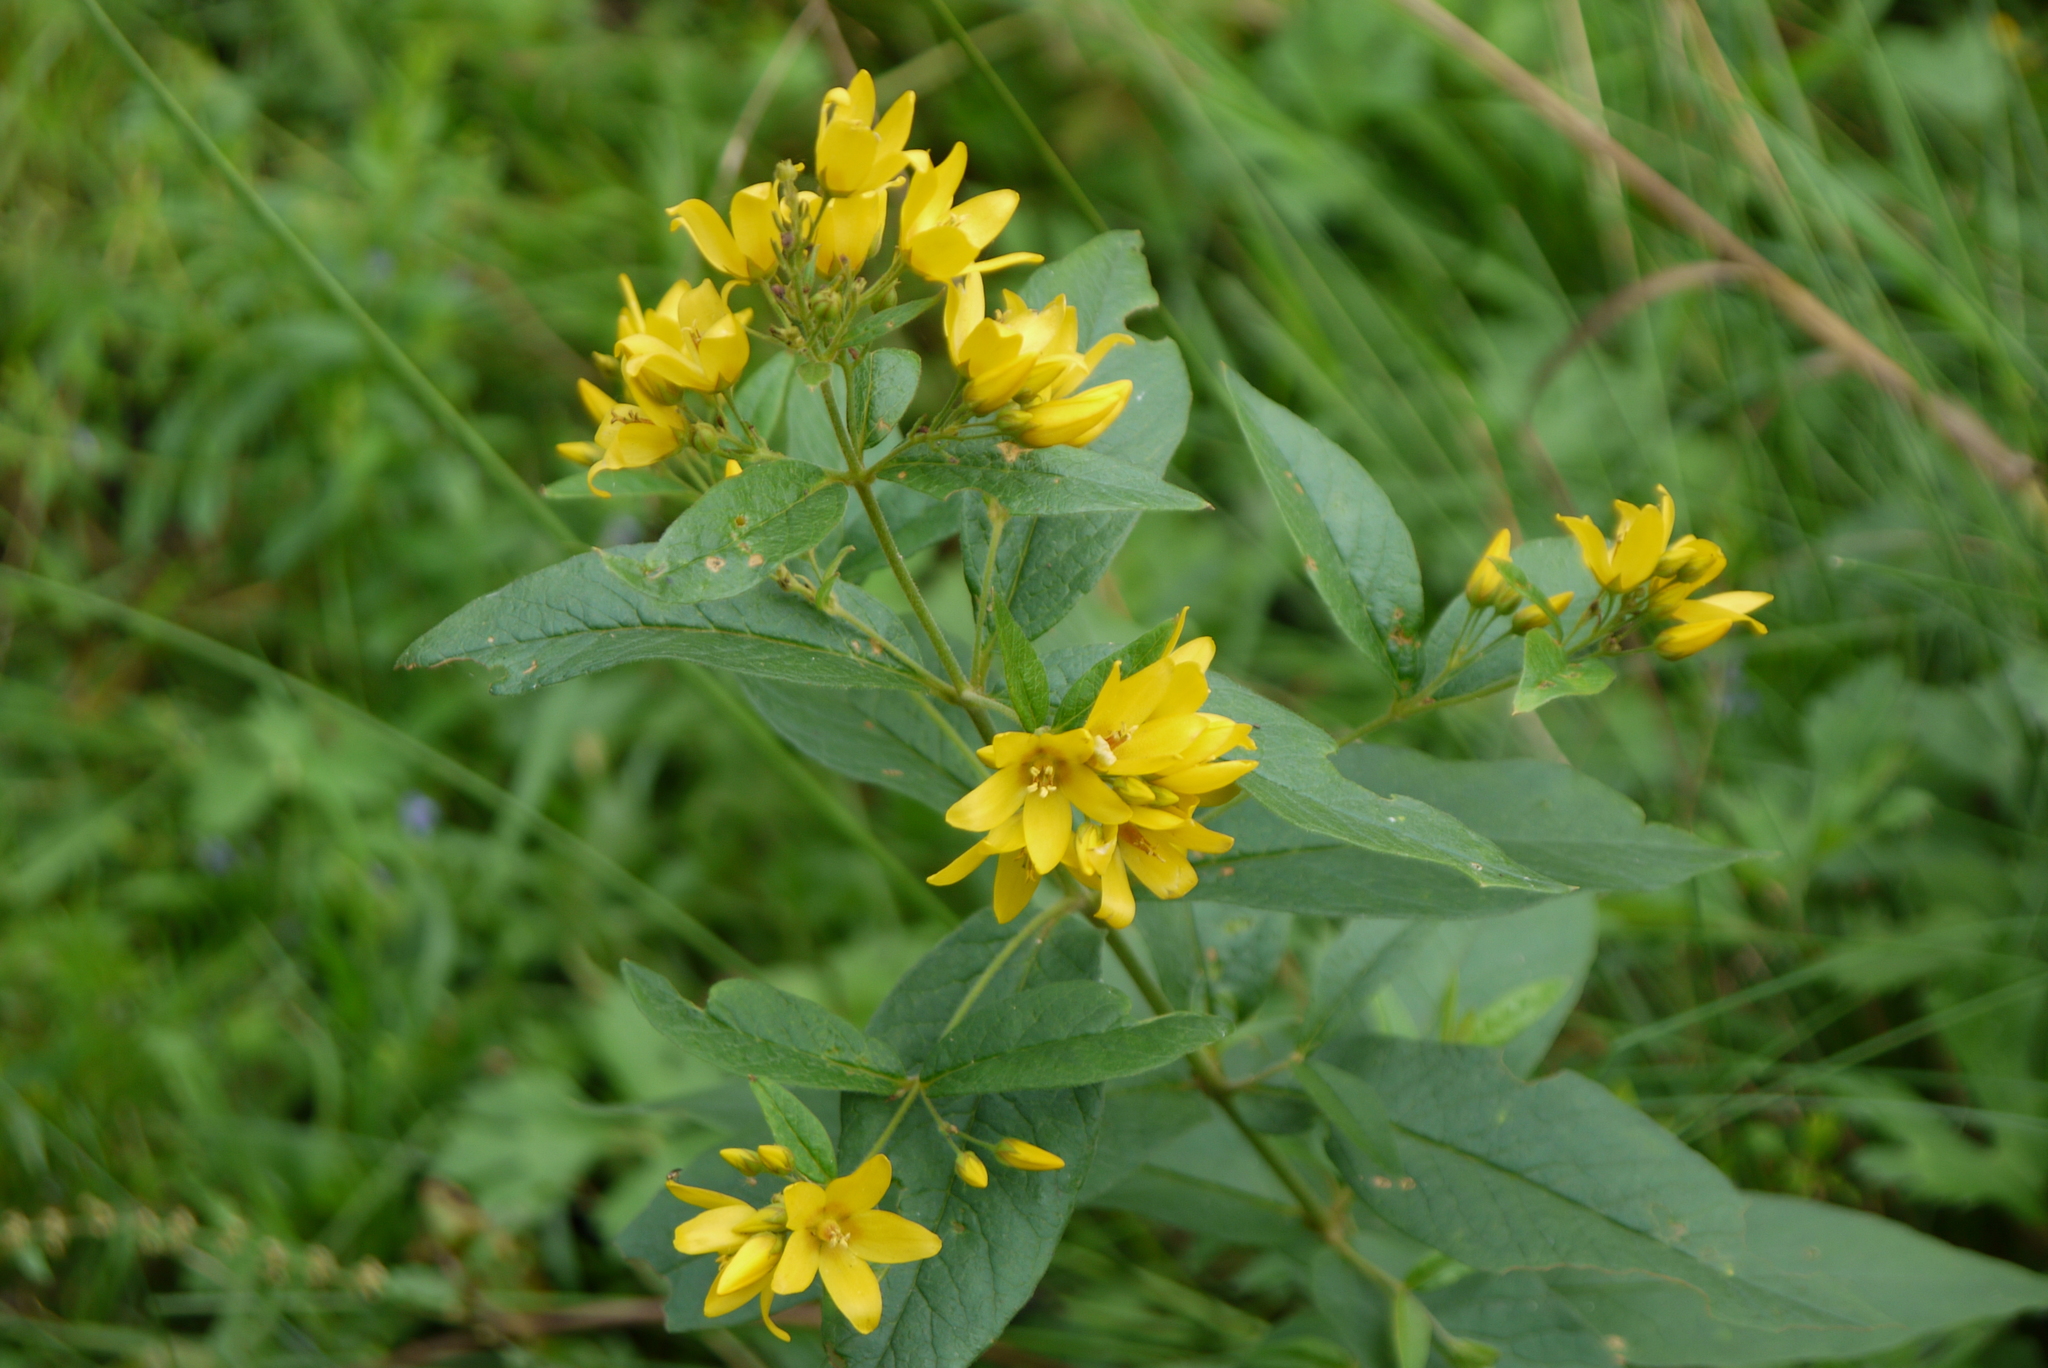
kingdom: Plantae
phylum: Tracheophyta
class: Magnoliopsida
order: Ericales
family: Primulaceae
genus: Lysimachia
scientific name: Lysimachia vulgaris
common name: Yellow loosestrife
